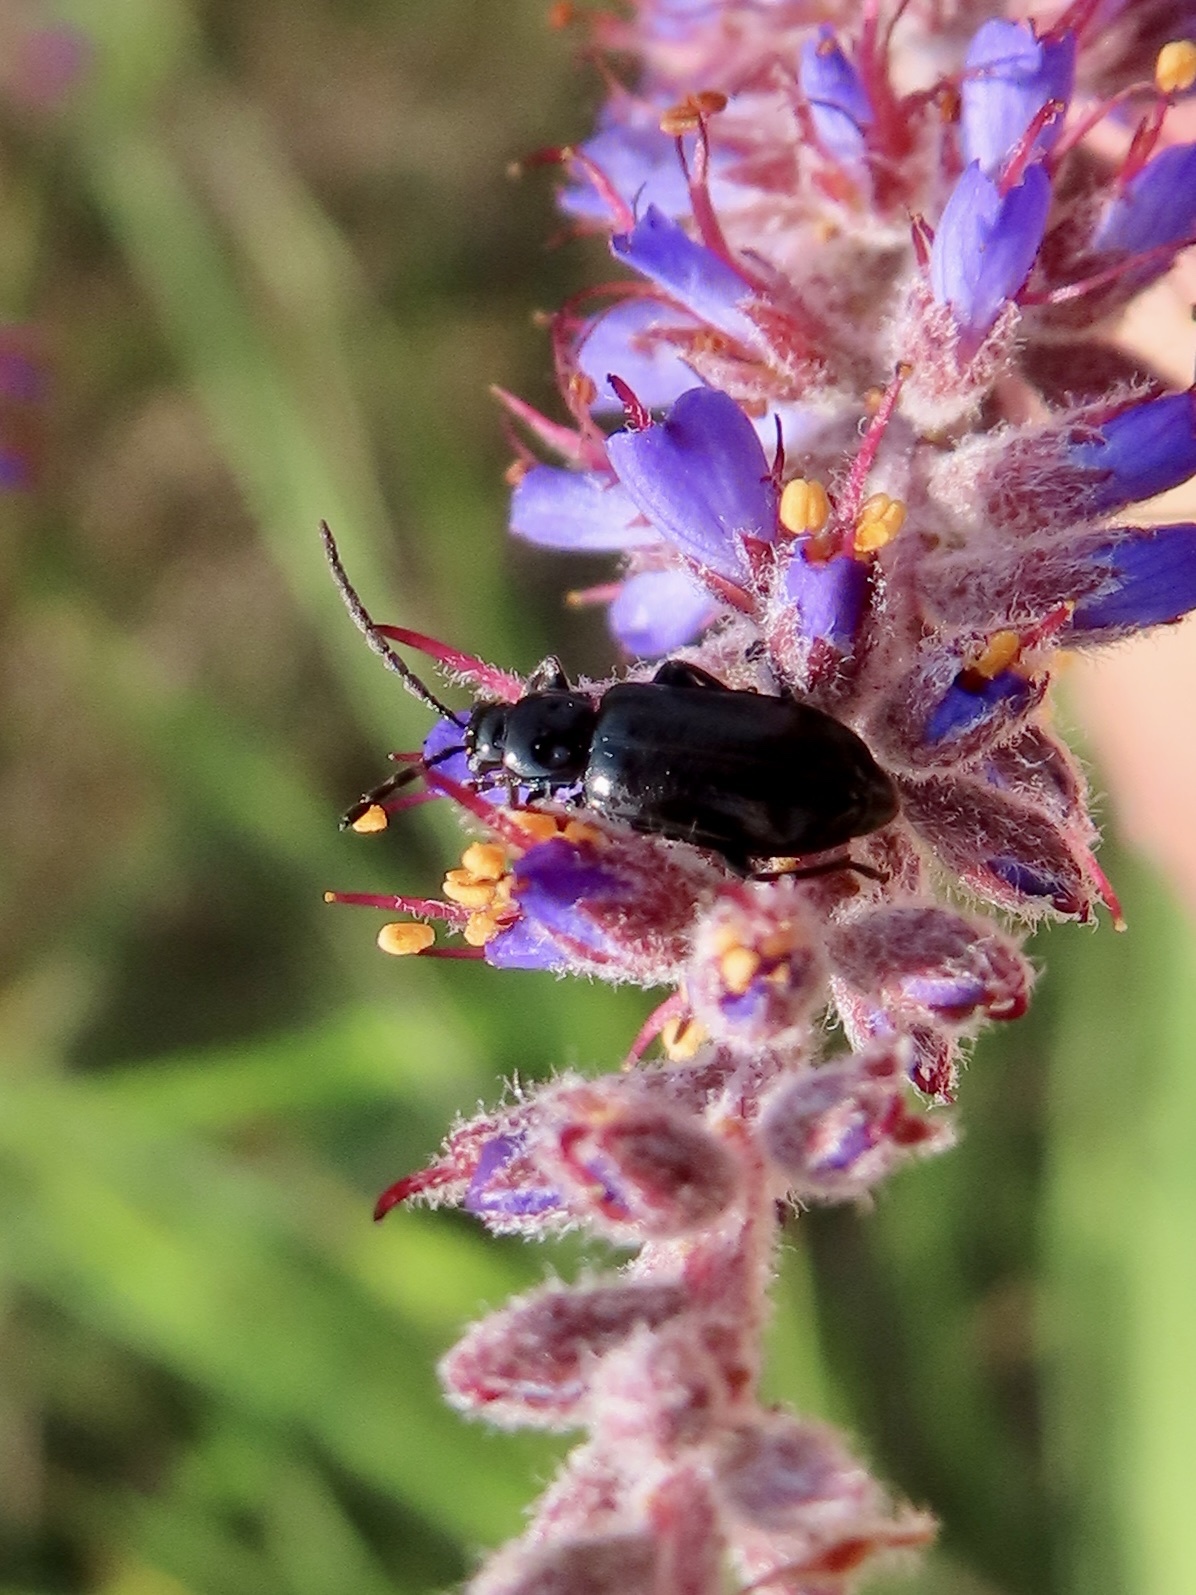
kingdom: Animalia
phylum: Arthropoda
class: Insecta
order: Coleoptera
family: Chrysomelidae
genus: Diabrotica
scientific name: Diabrotica cristata
